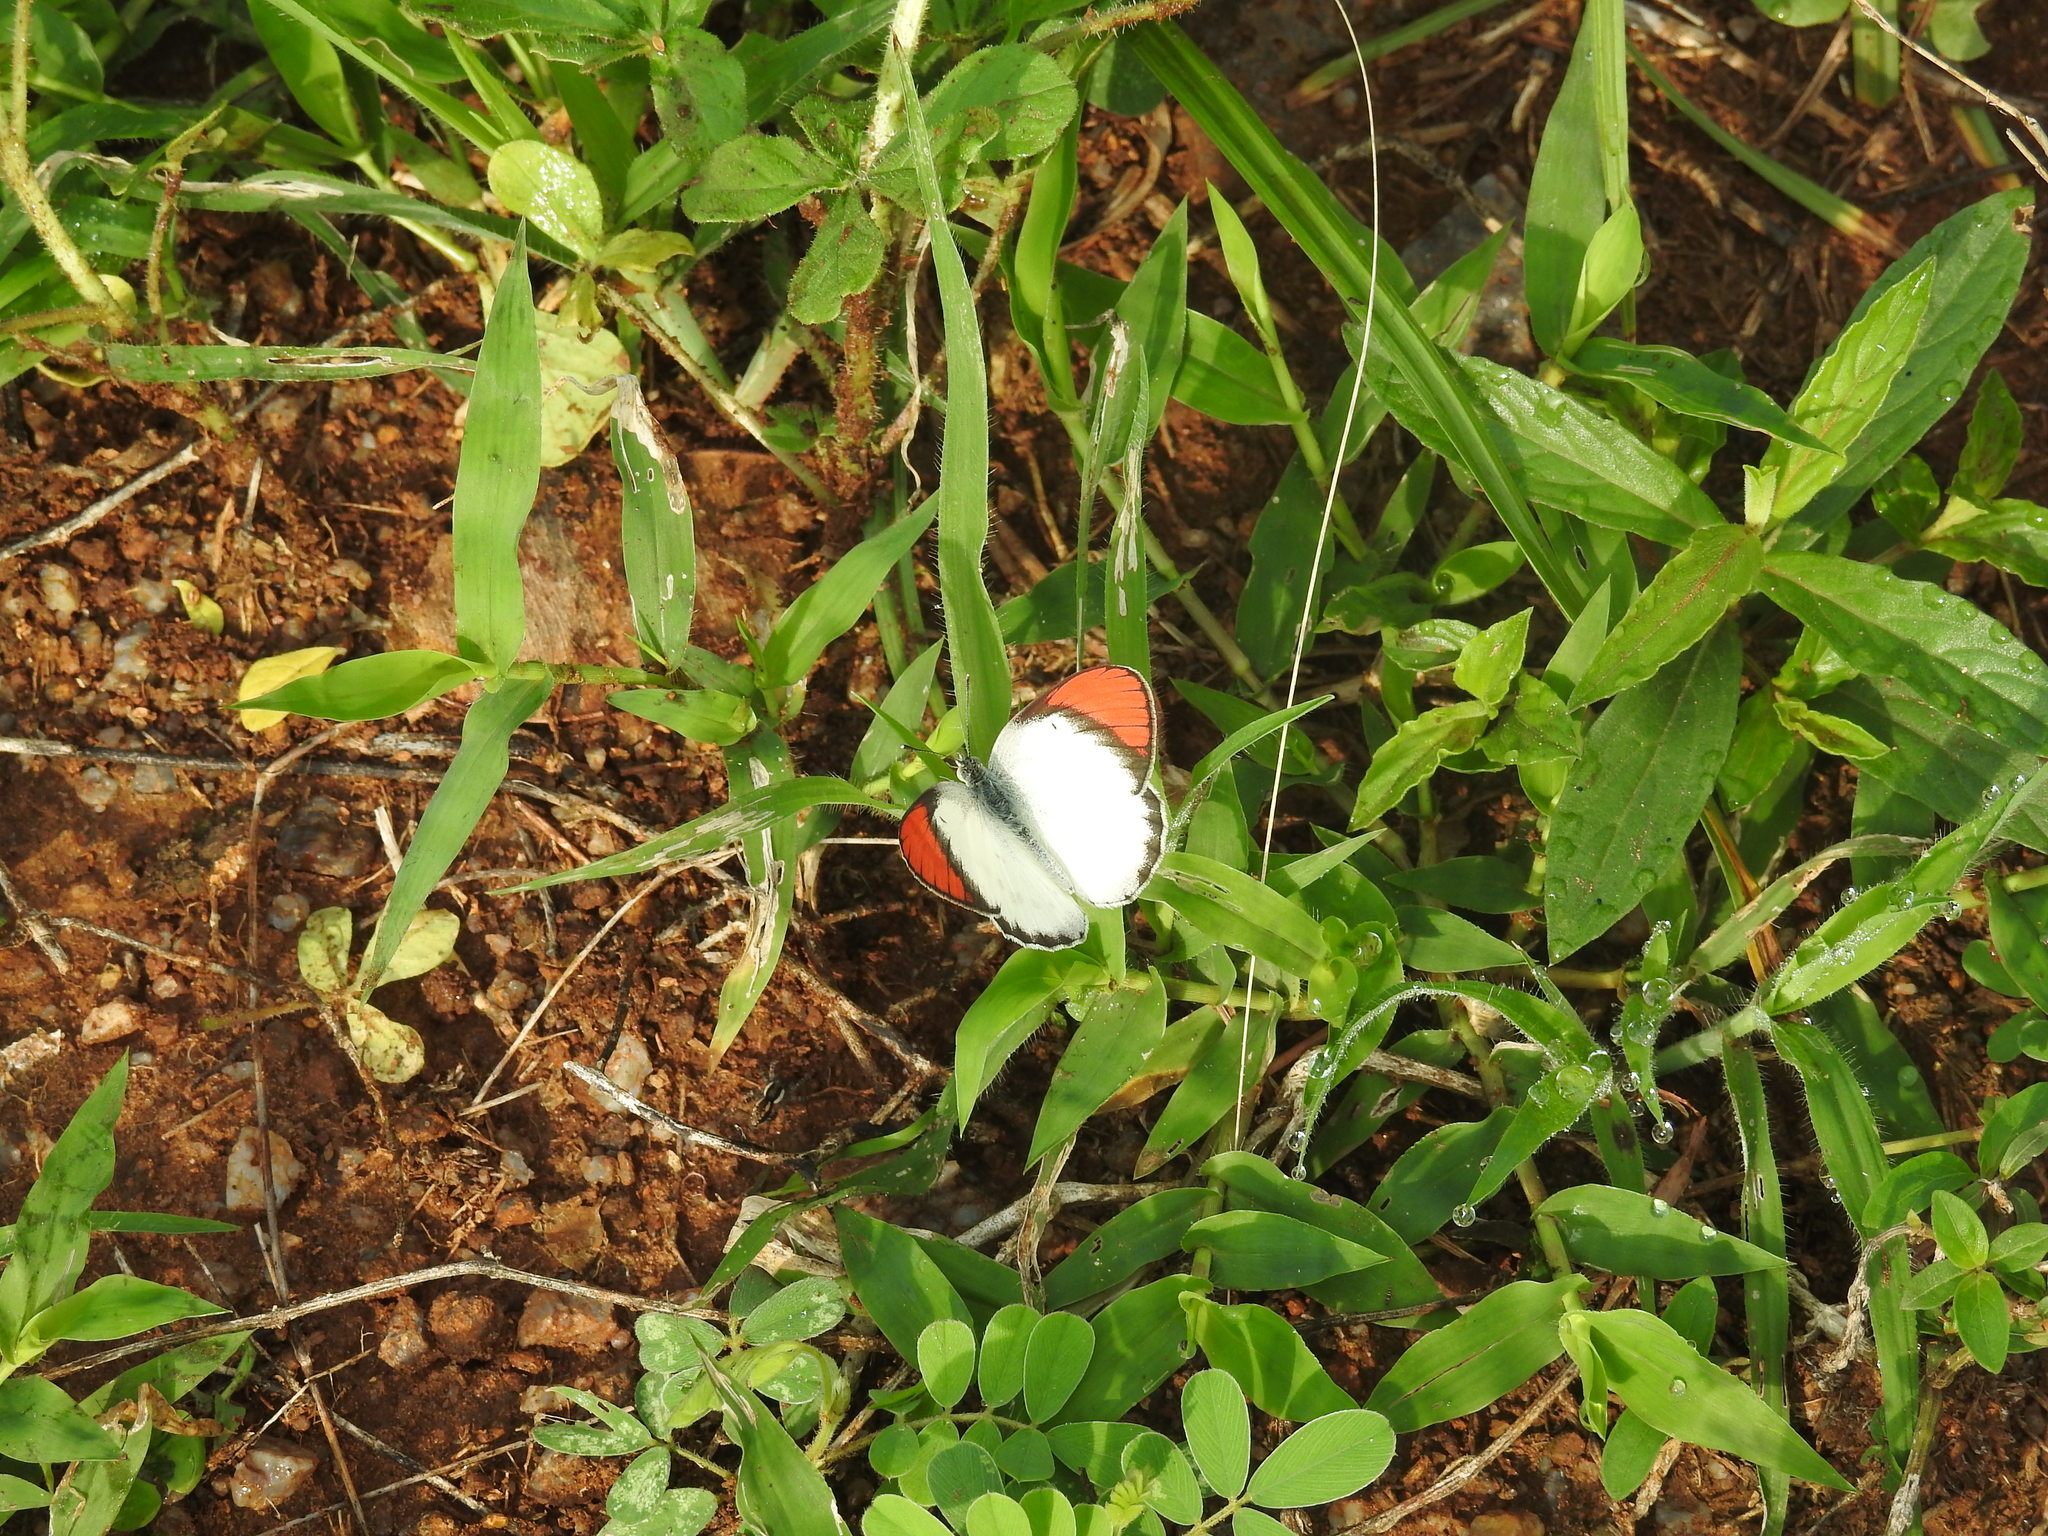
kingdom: Animalia
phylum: Arthropoda
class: Insecta
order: Lepidoptera
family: Pieridae
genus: Colotis
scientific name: Colotis danae
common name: Crimson tip
